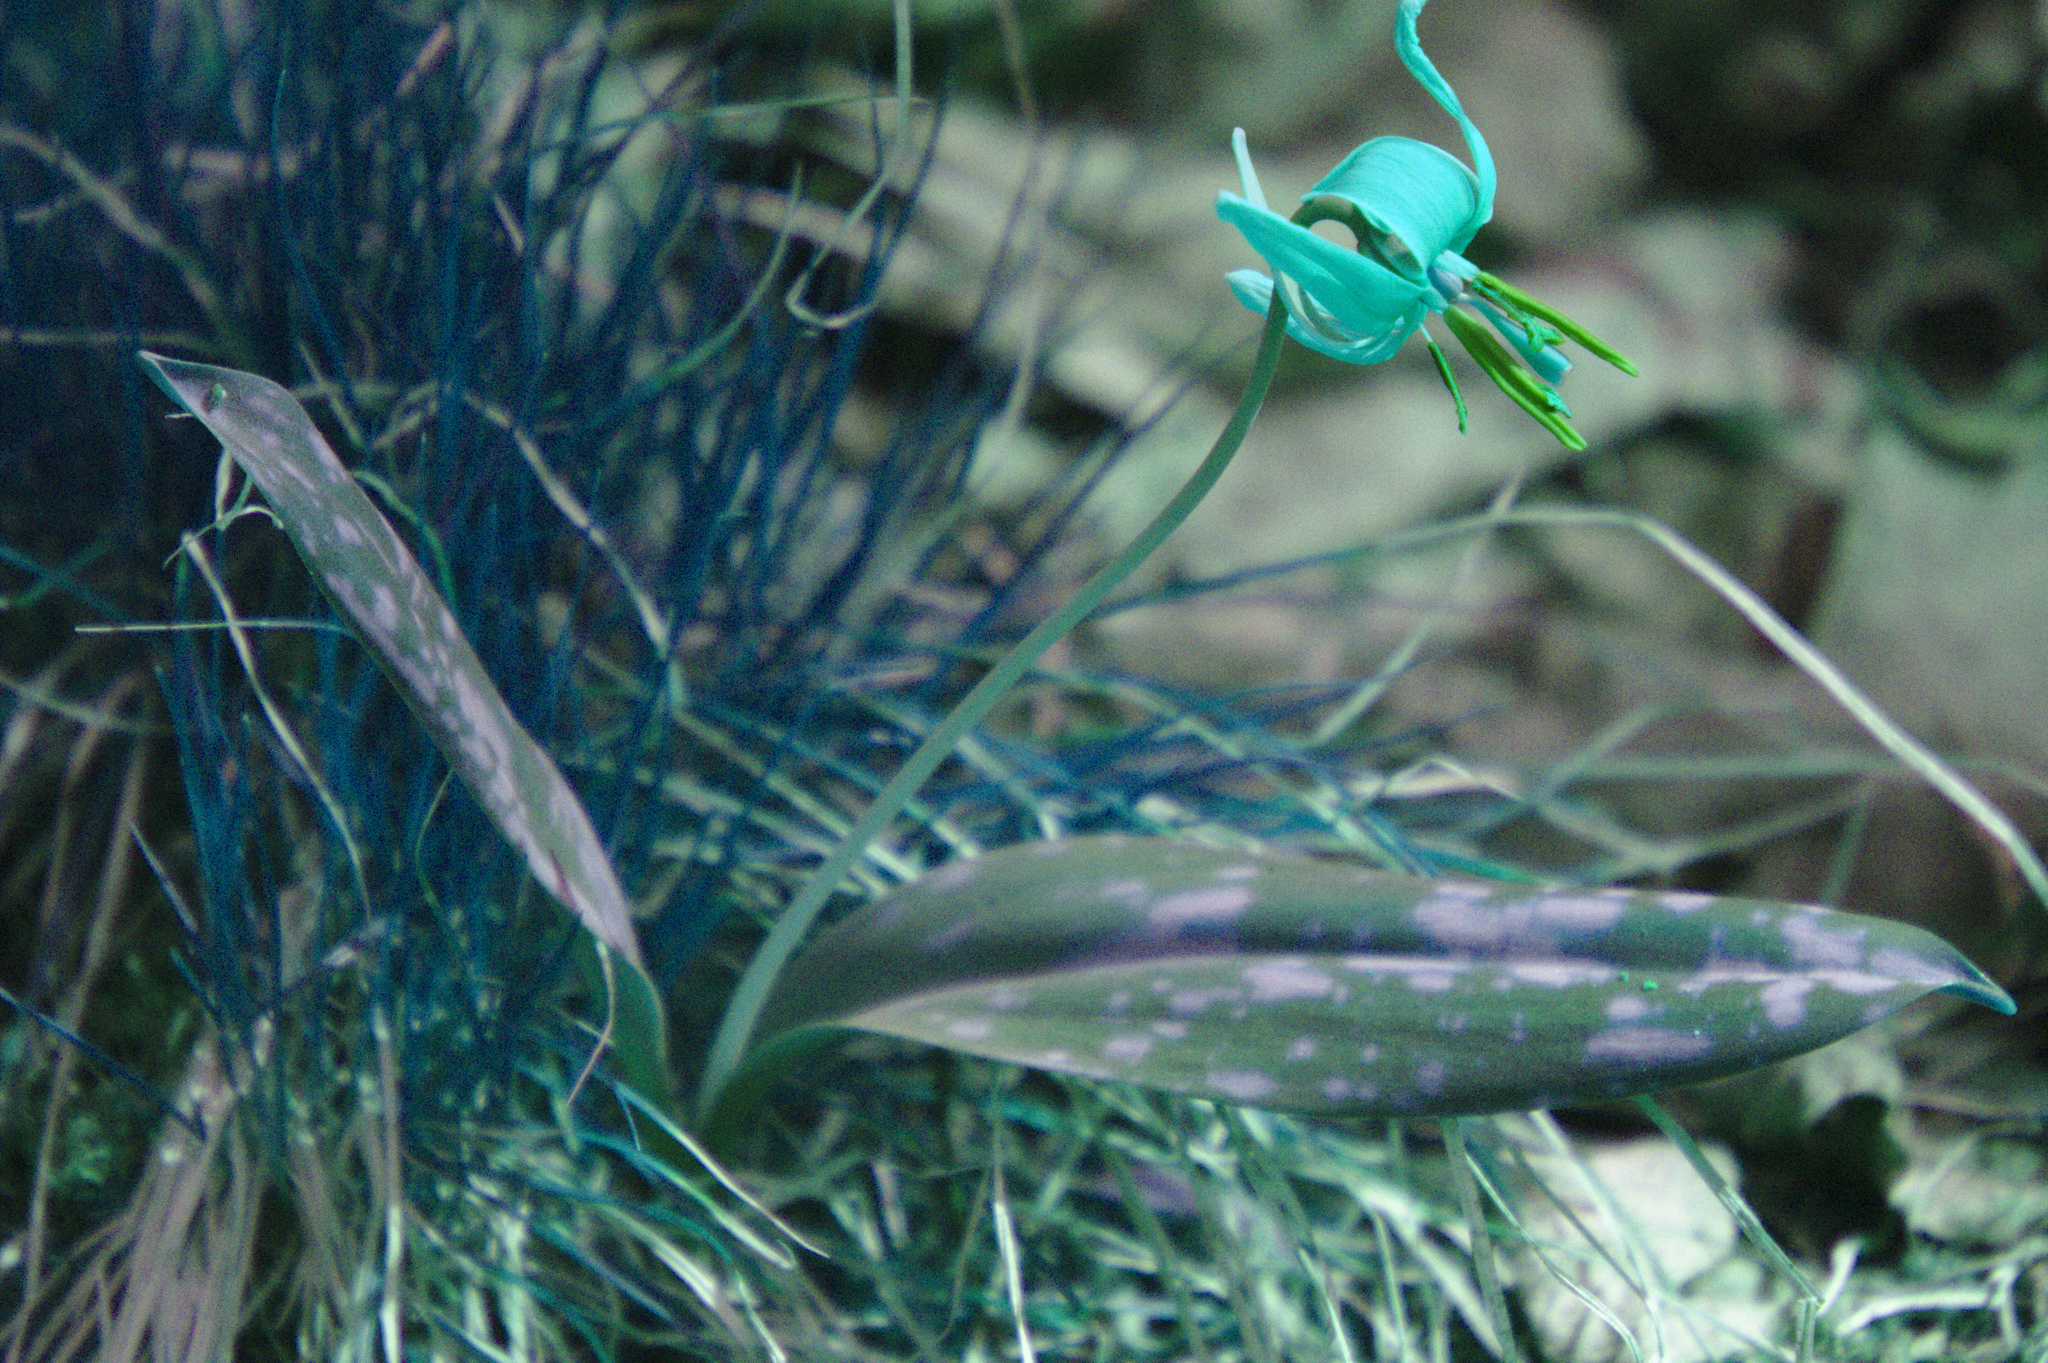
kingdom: Plantae
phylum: Tracheophyta
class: Liliopsida
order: Liliales
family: Liliaceae
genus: Erythronium
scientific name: Erythronium americanum
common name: Yellow adder's-tongue
